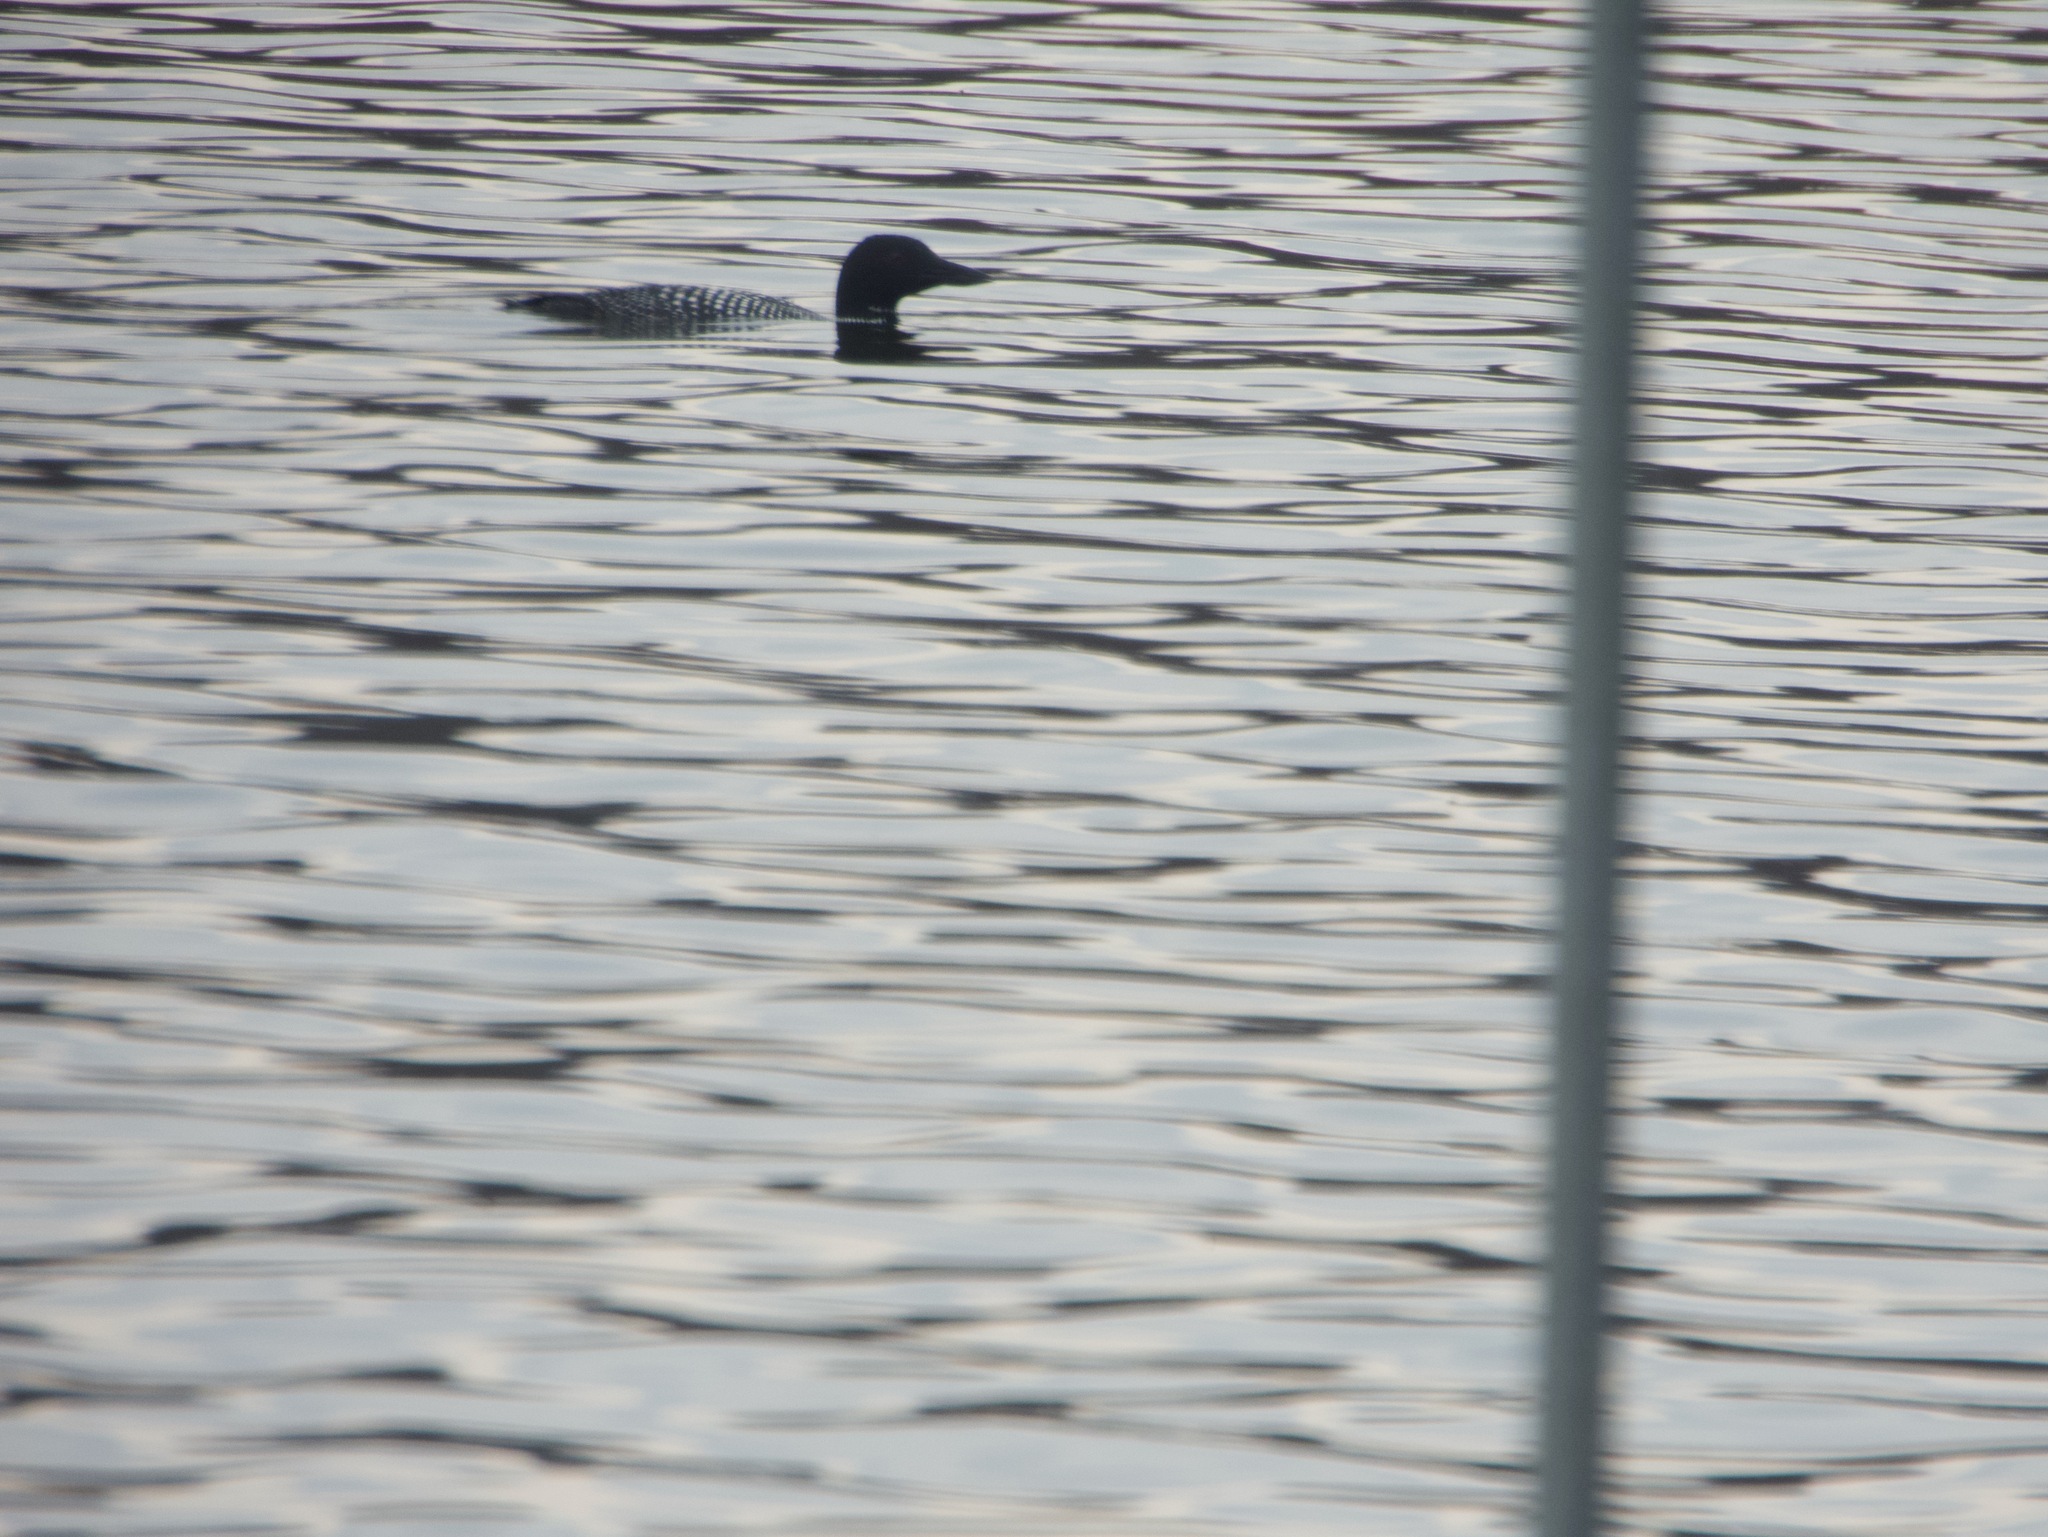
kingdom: Animalia
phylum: Chordata
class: Aves
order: Gaviiformes
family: Gaviidae
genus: Gavia
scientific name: Gavia immer
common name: Common loon
